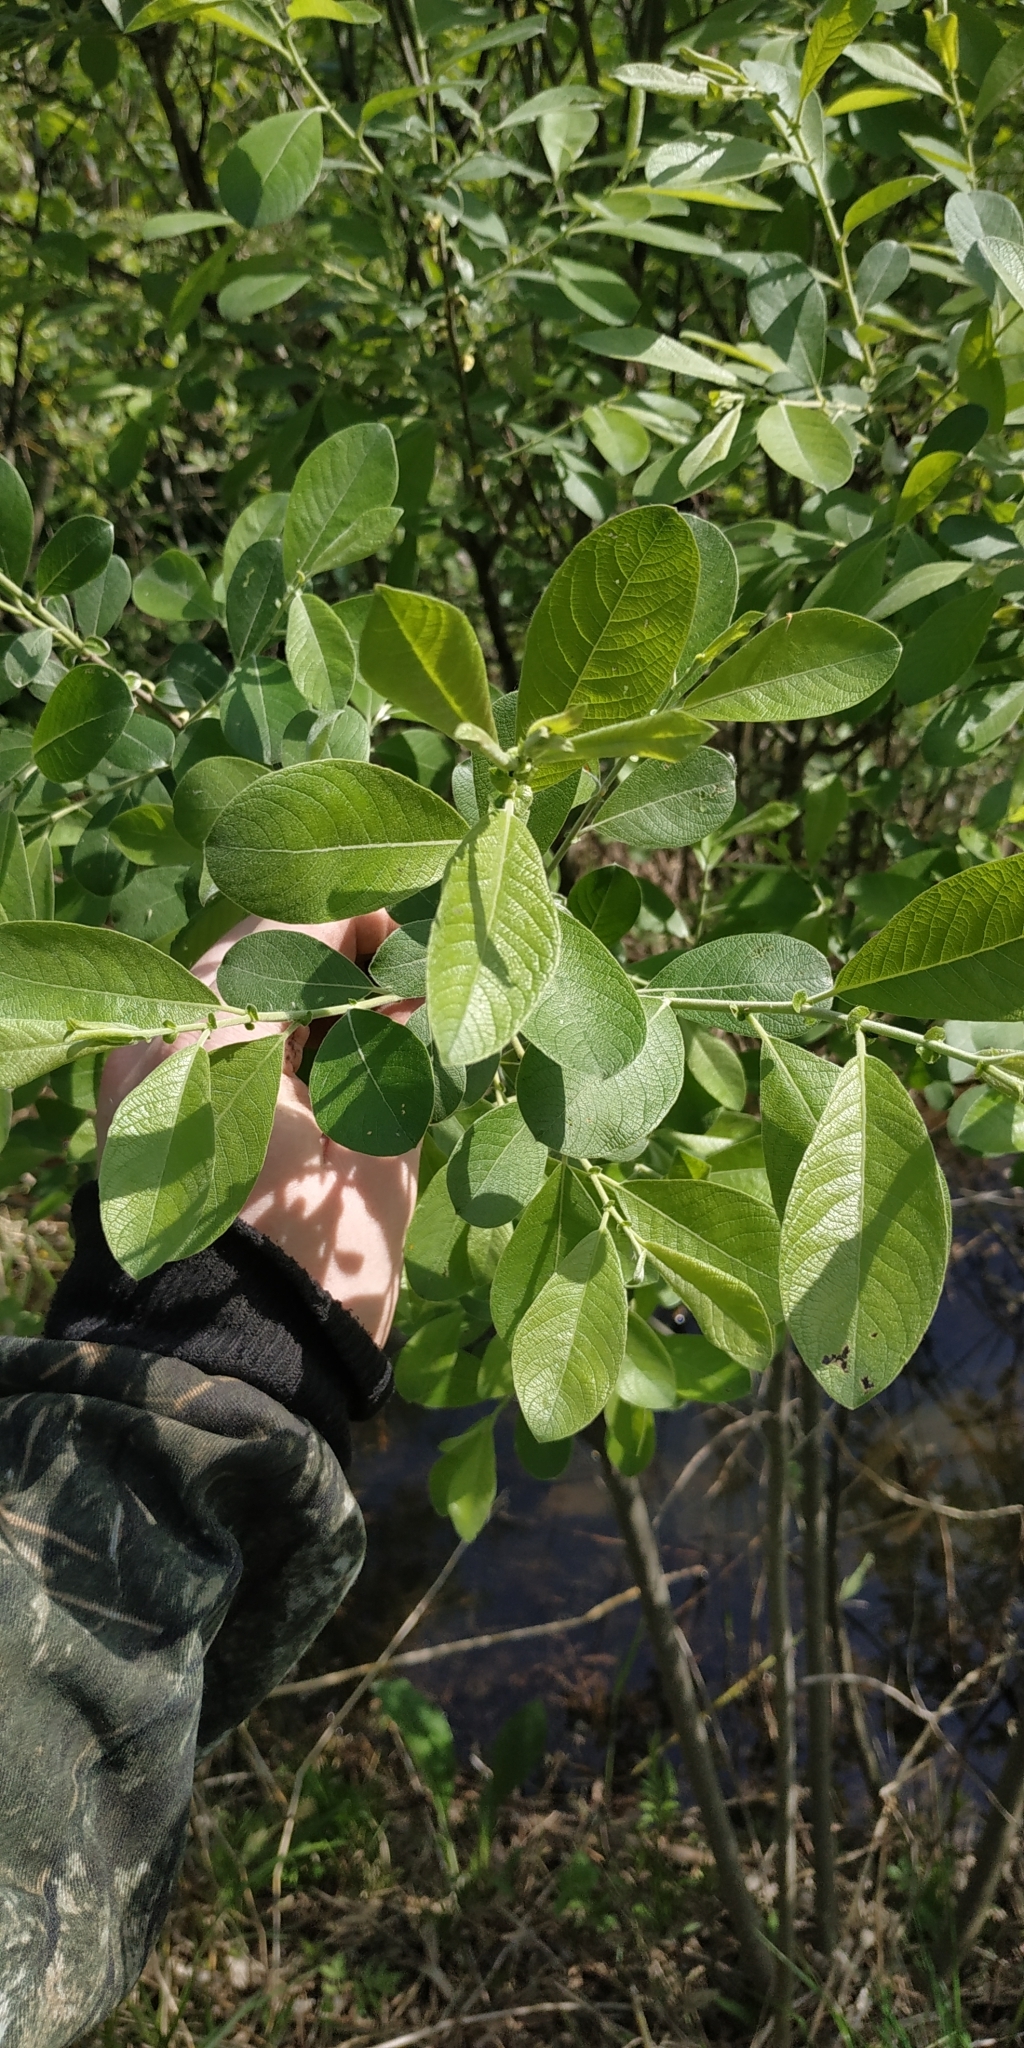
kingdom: Plantae
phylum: Tracheophyta
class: Magnoliopsida
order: Malpighiales
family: Salicaceae
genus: Salix
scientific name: Salix cinerea
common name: Common sallow
